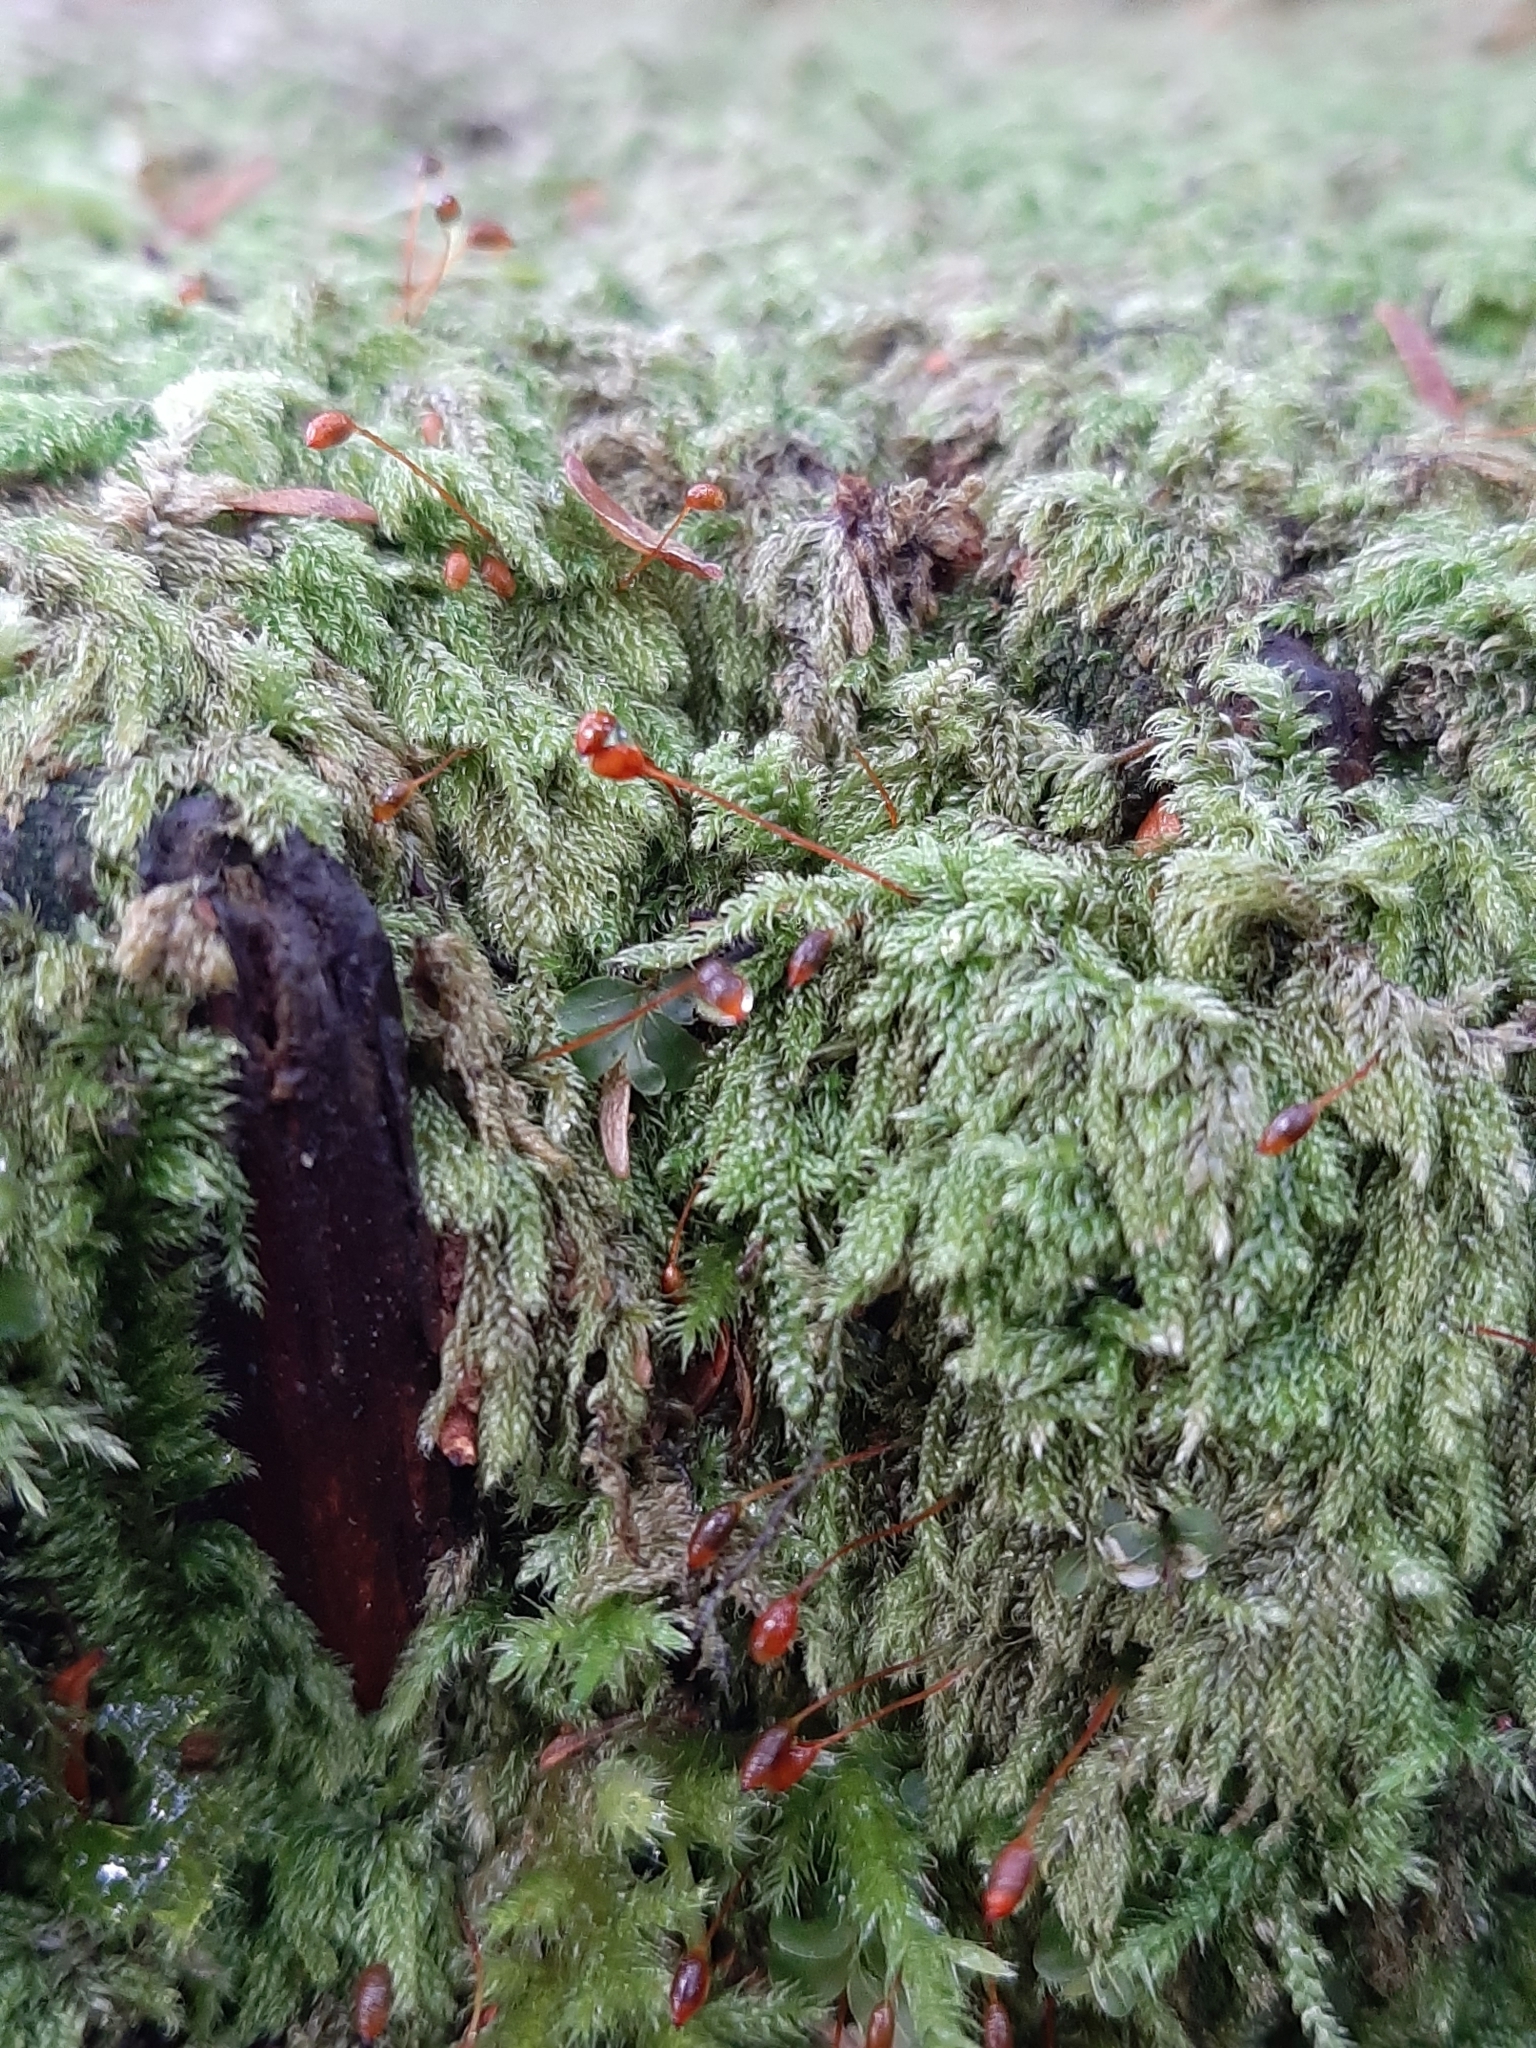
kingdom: Plantae
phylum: Bryophyta
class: Bryopsida
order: Hypnales
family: Pylaisiadelphaceae
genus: Trochophyllohypnum
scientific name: Trochophyllohypnum circinale
